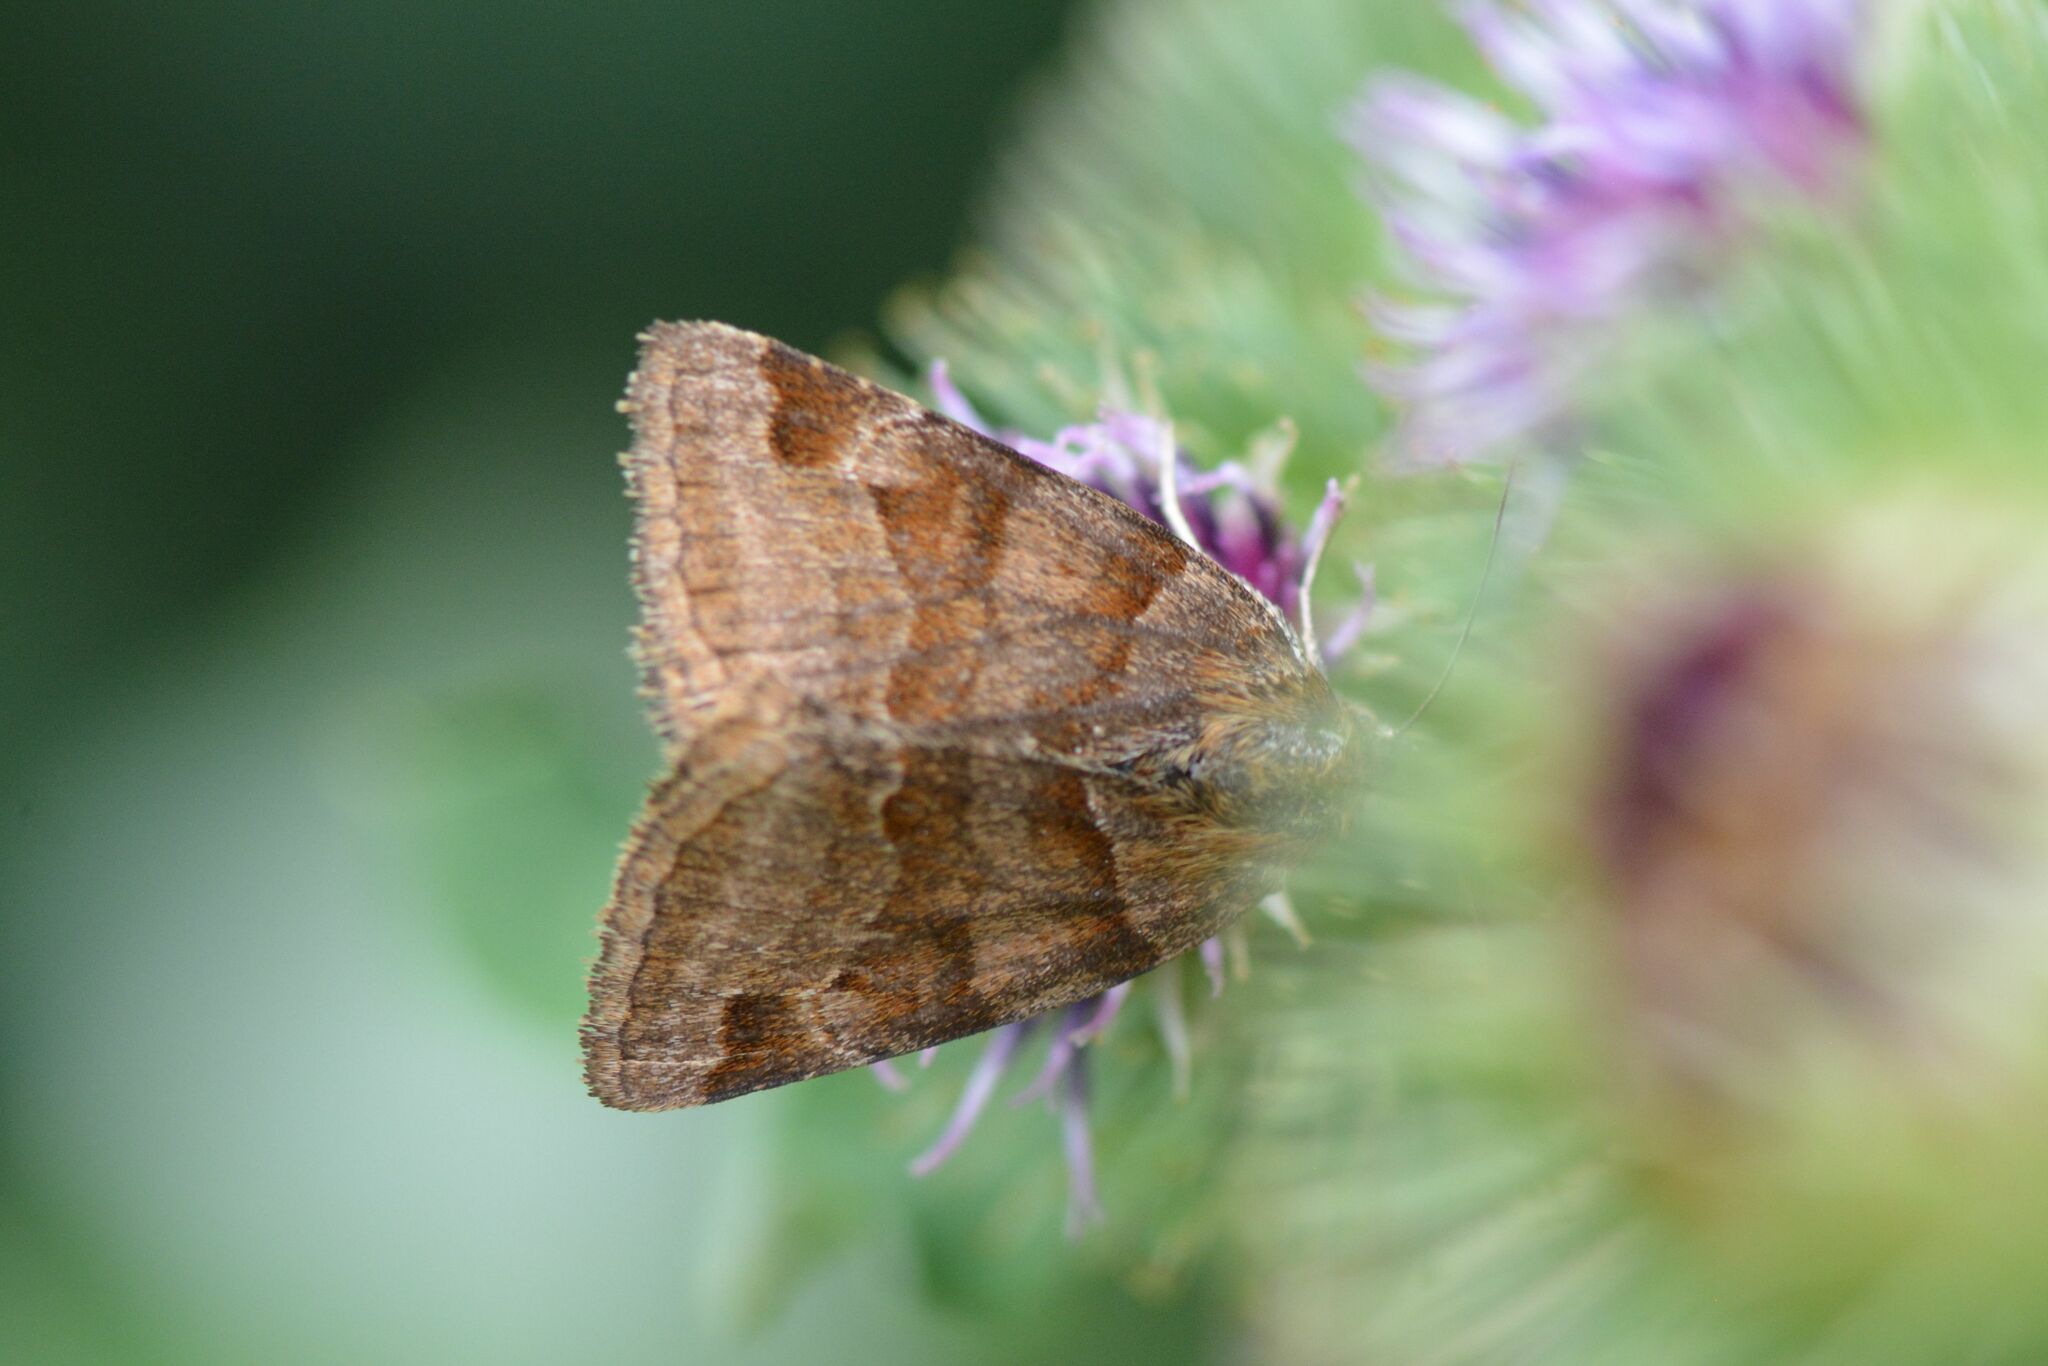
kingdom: Animalia
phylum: Arthropoda
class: Insecta
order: Lepidoptera
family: Erebidae
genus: Euclidia
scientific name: Euclidia glyphica
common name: Burnet companion
